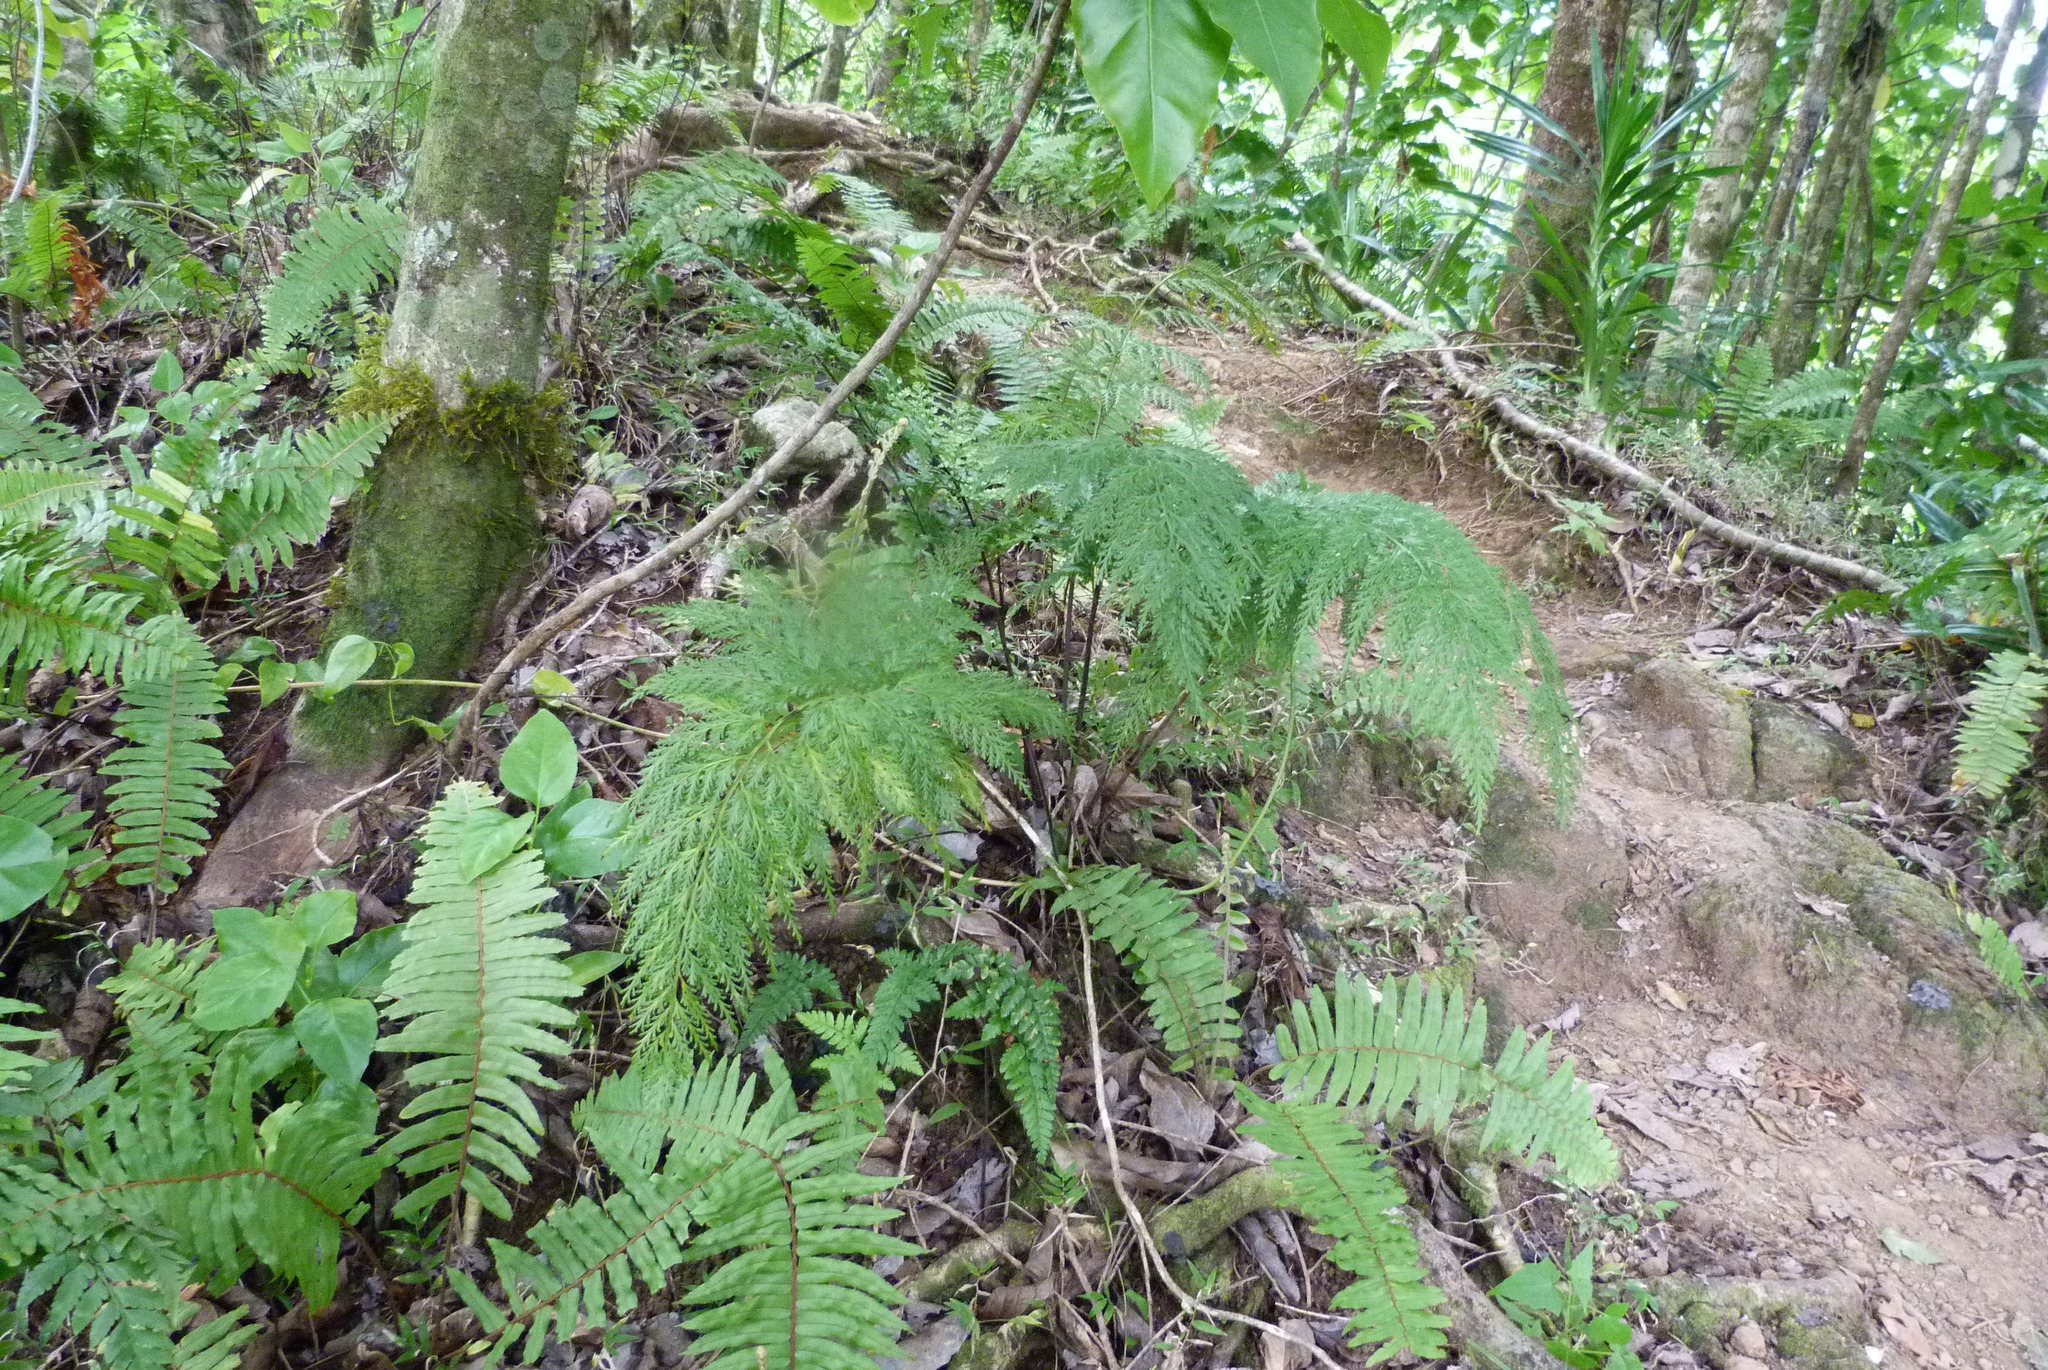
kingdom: Plantae
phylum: Tracheophyta
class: Polypodiopsida
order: Polypodiales
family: Aspleniaceae
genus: Asplenium
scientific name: Asplenium gibberosum
